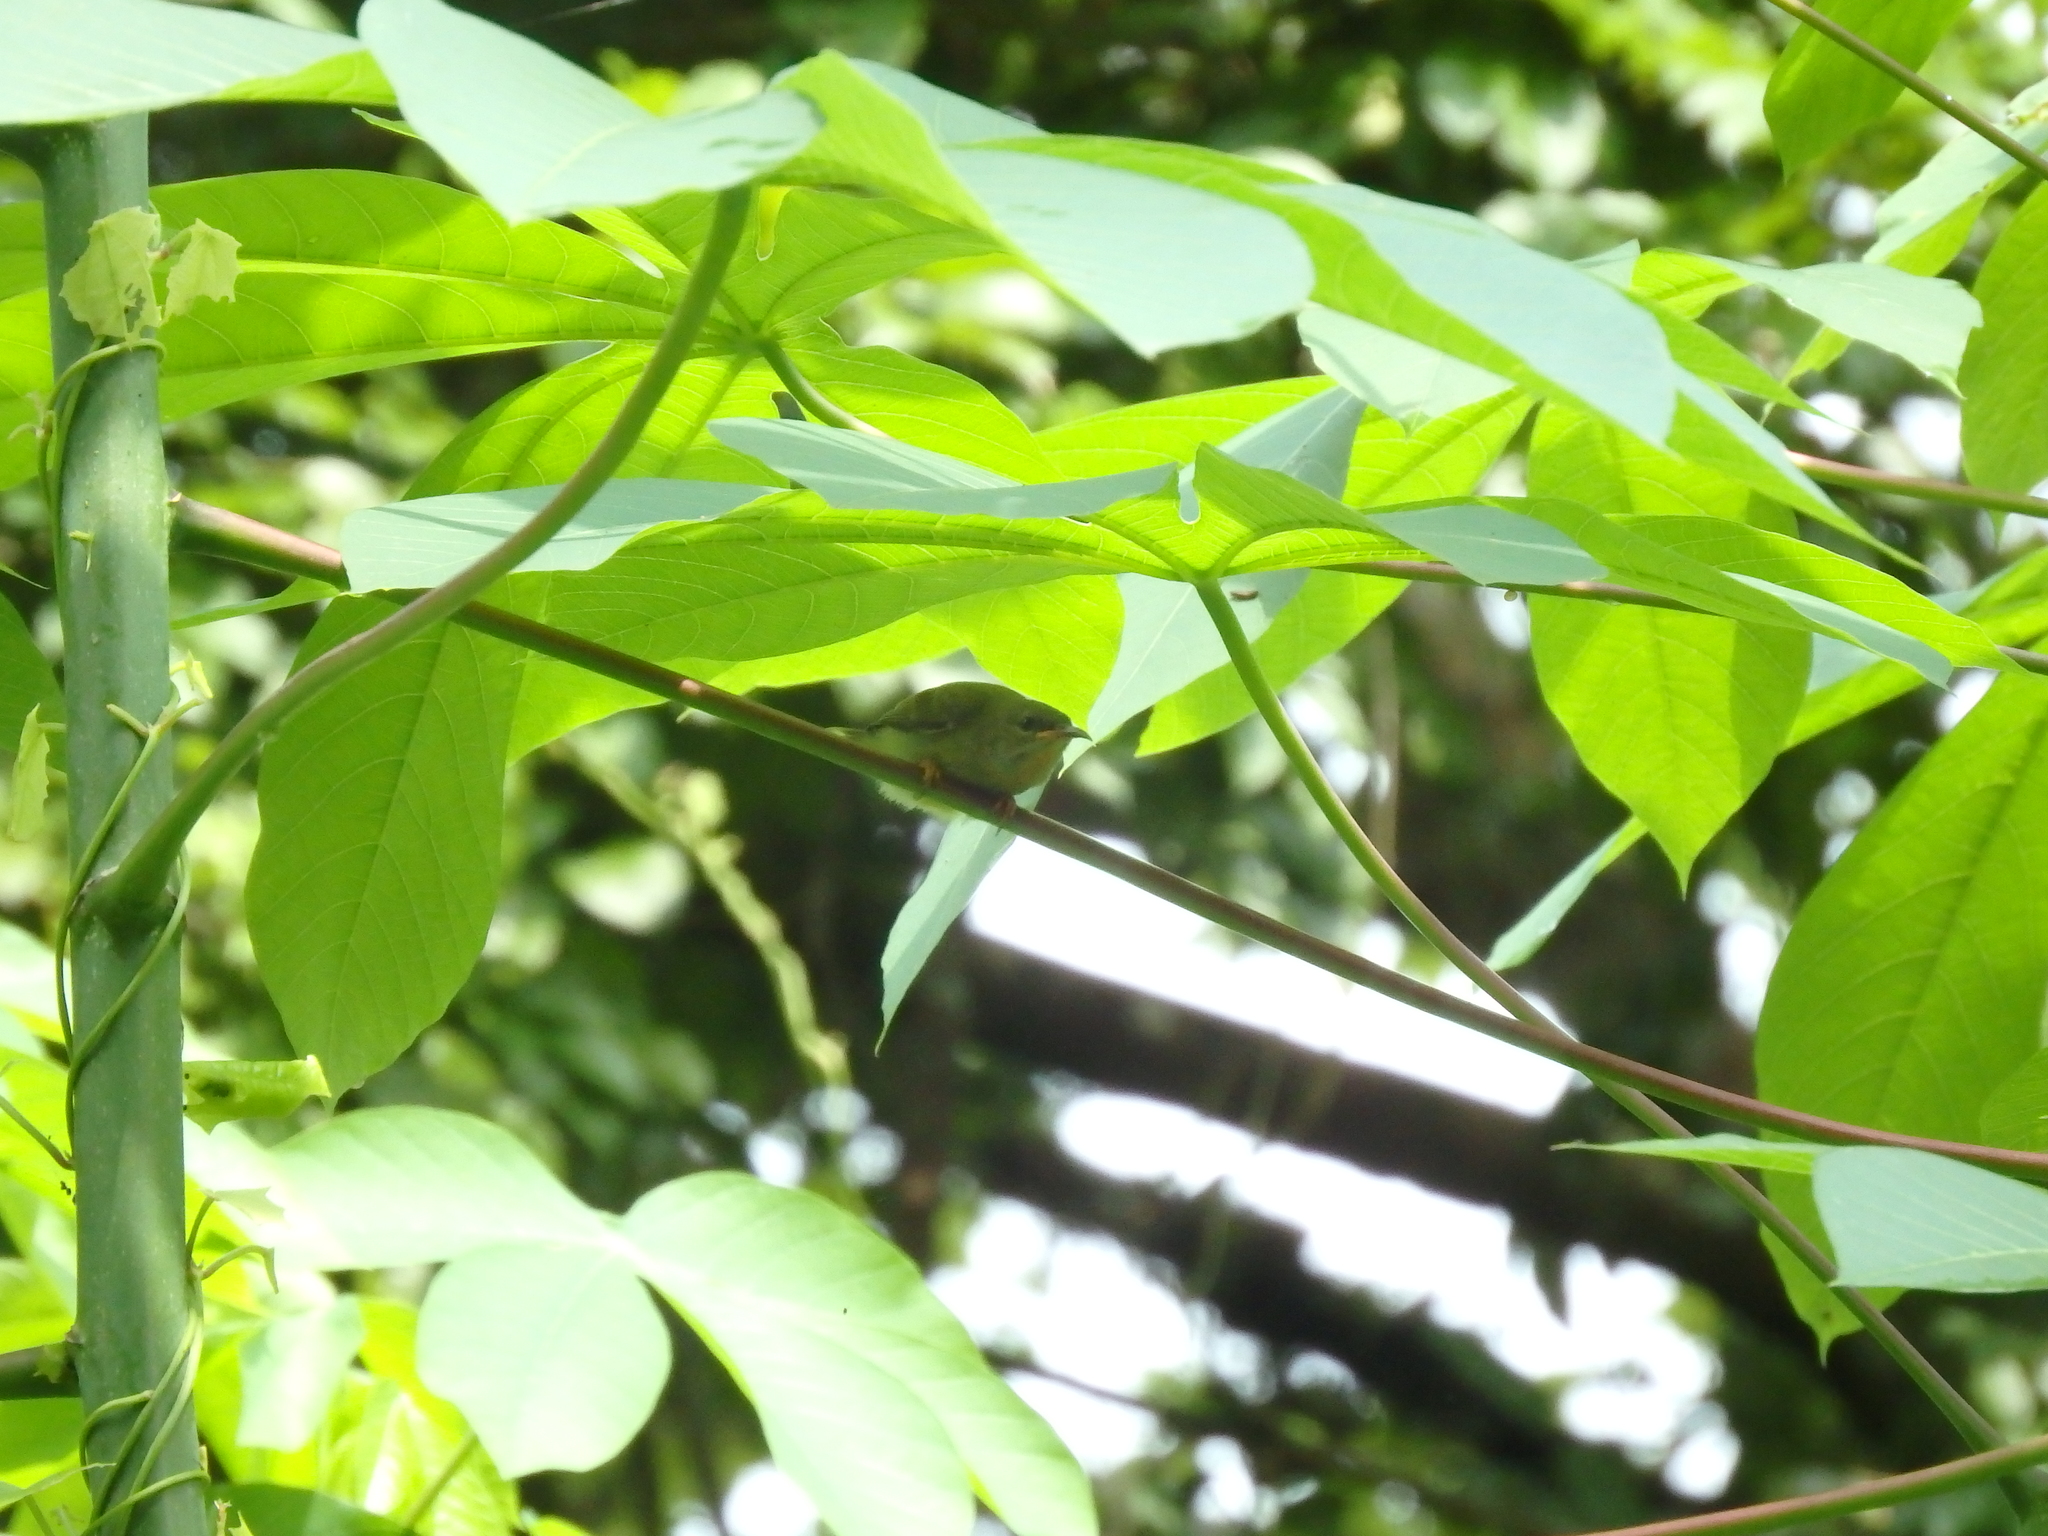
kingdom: Animalia
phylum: Chordata
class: Aves
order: Passeriformes
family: Nectariniidae
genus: Aethopyga
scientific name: Aethopyga siparaja
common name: Crimson sunbird
